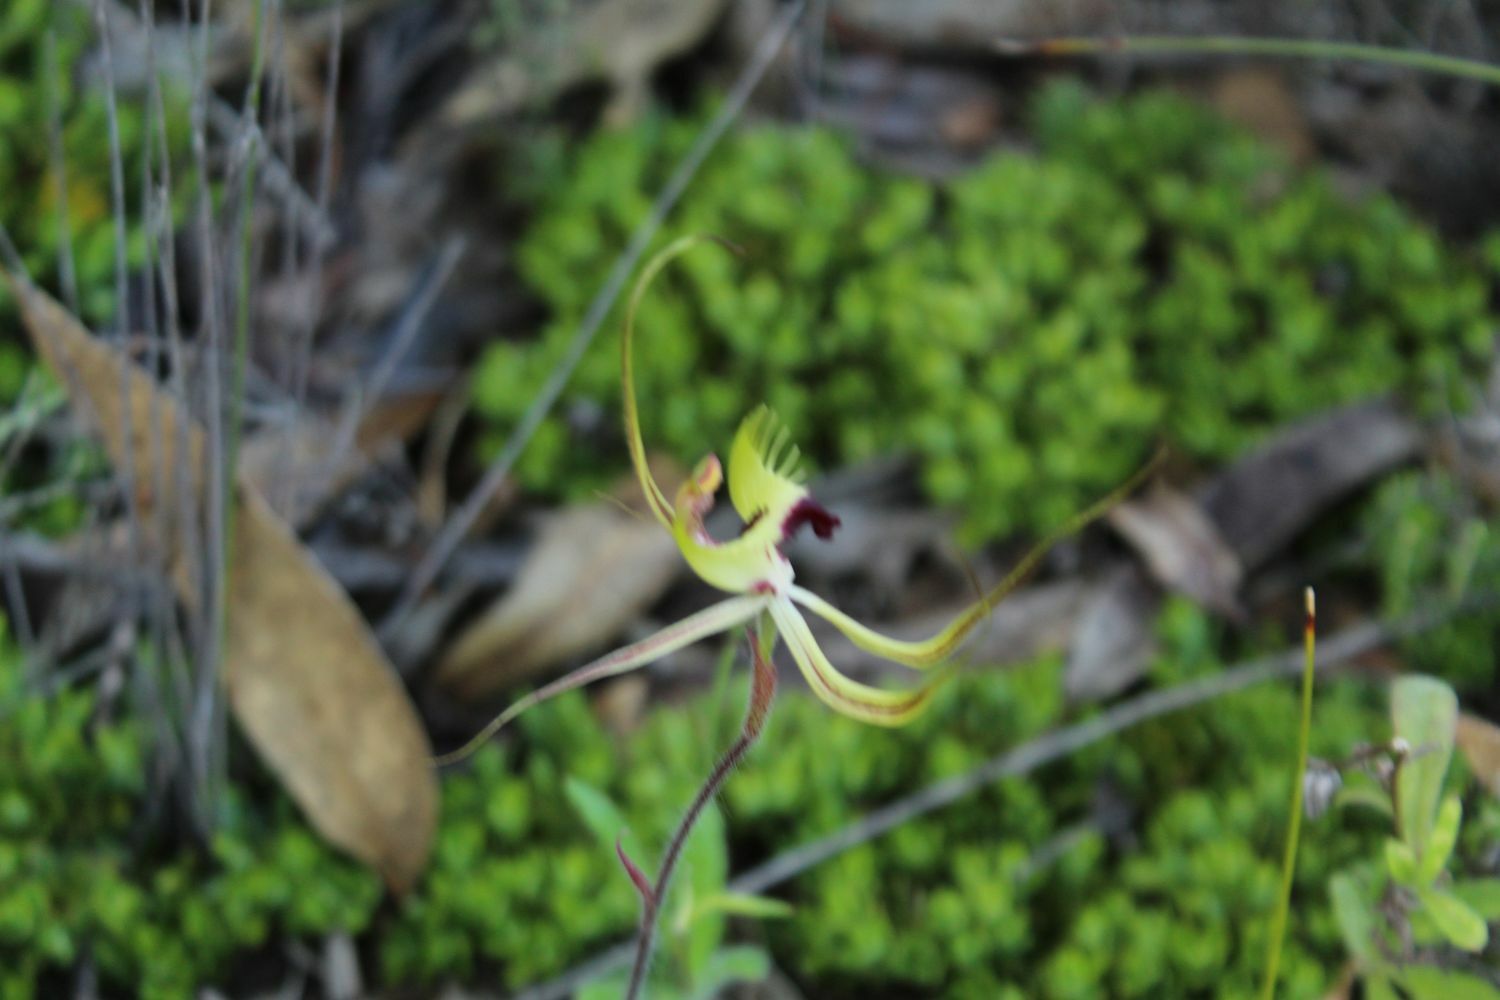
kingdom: Plantae
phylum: Tracheophyta
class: Liliopsida
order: Asparagales
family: Orchidaceae
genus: Caladenia
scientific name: Caladenia falcata
